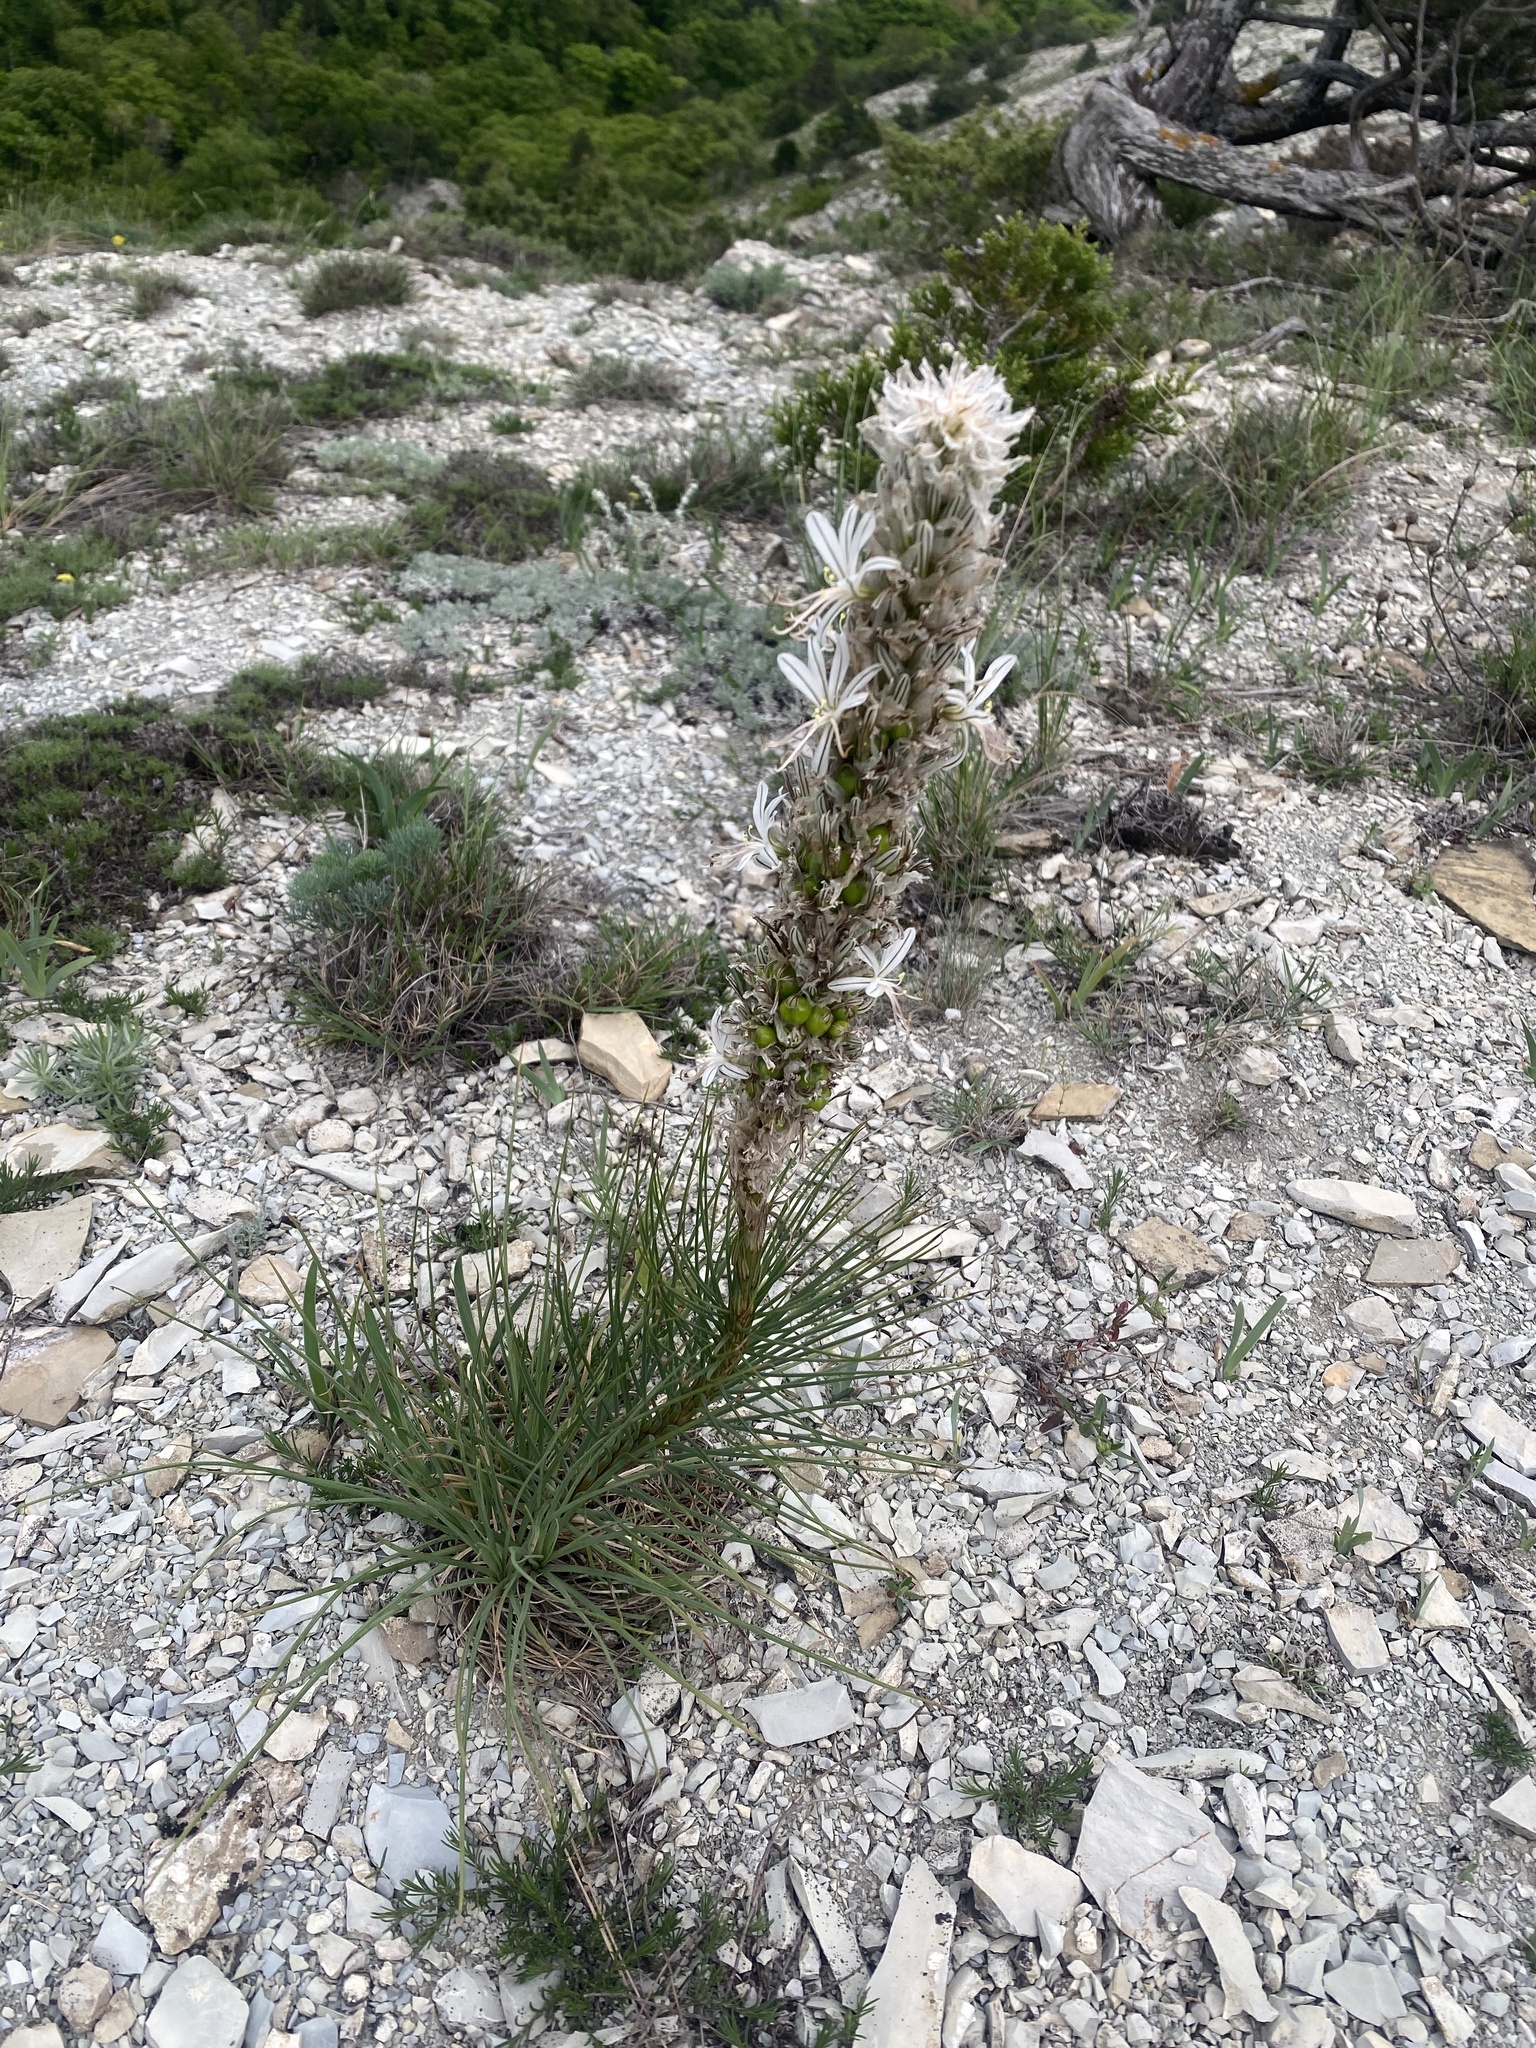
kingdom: Plantae
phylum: Tracheophyta
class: Liliopsida
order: Asparagales
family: Asphodelaceae
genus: Asphodeline
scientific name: Asphodeline taurica
